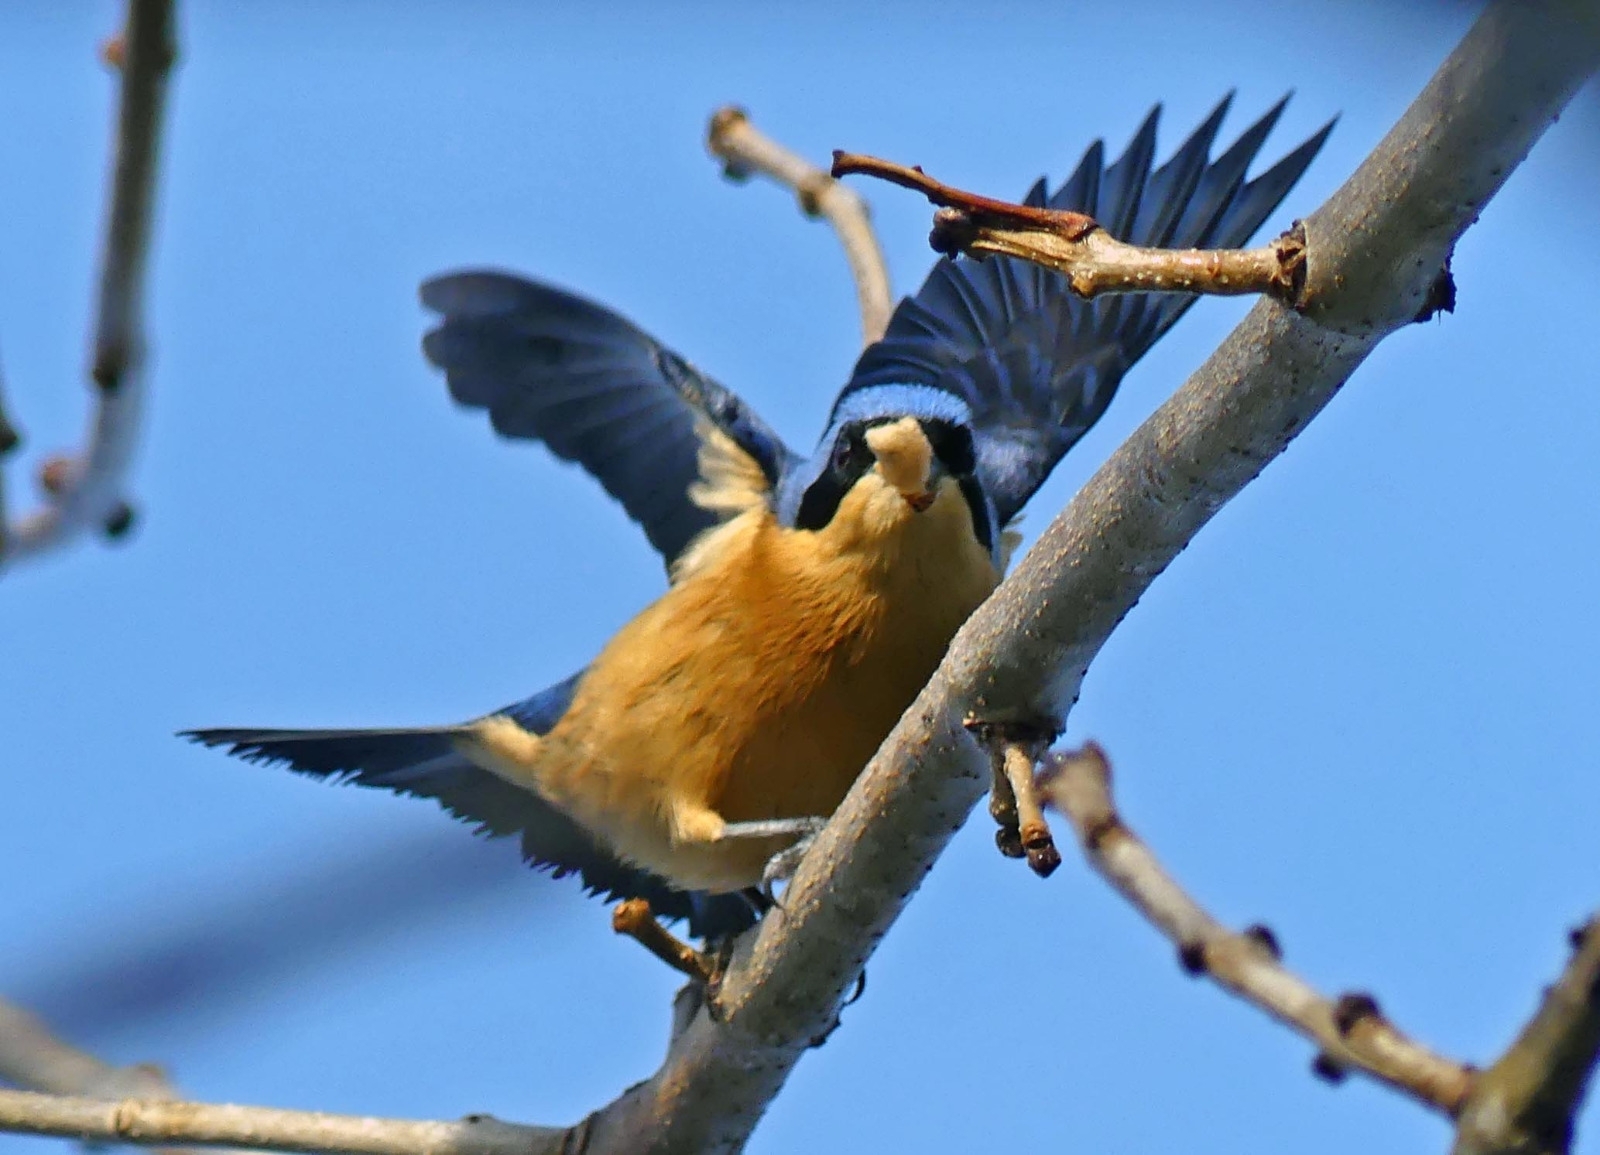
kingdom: Animalia
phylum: Chordata
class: Aves
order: Passeriformes
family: Thraupidae
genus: Pipraeidea
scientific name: Pipraeidea melanonota
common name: Fawn-breasted tanager
